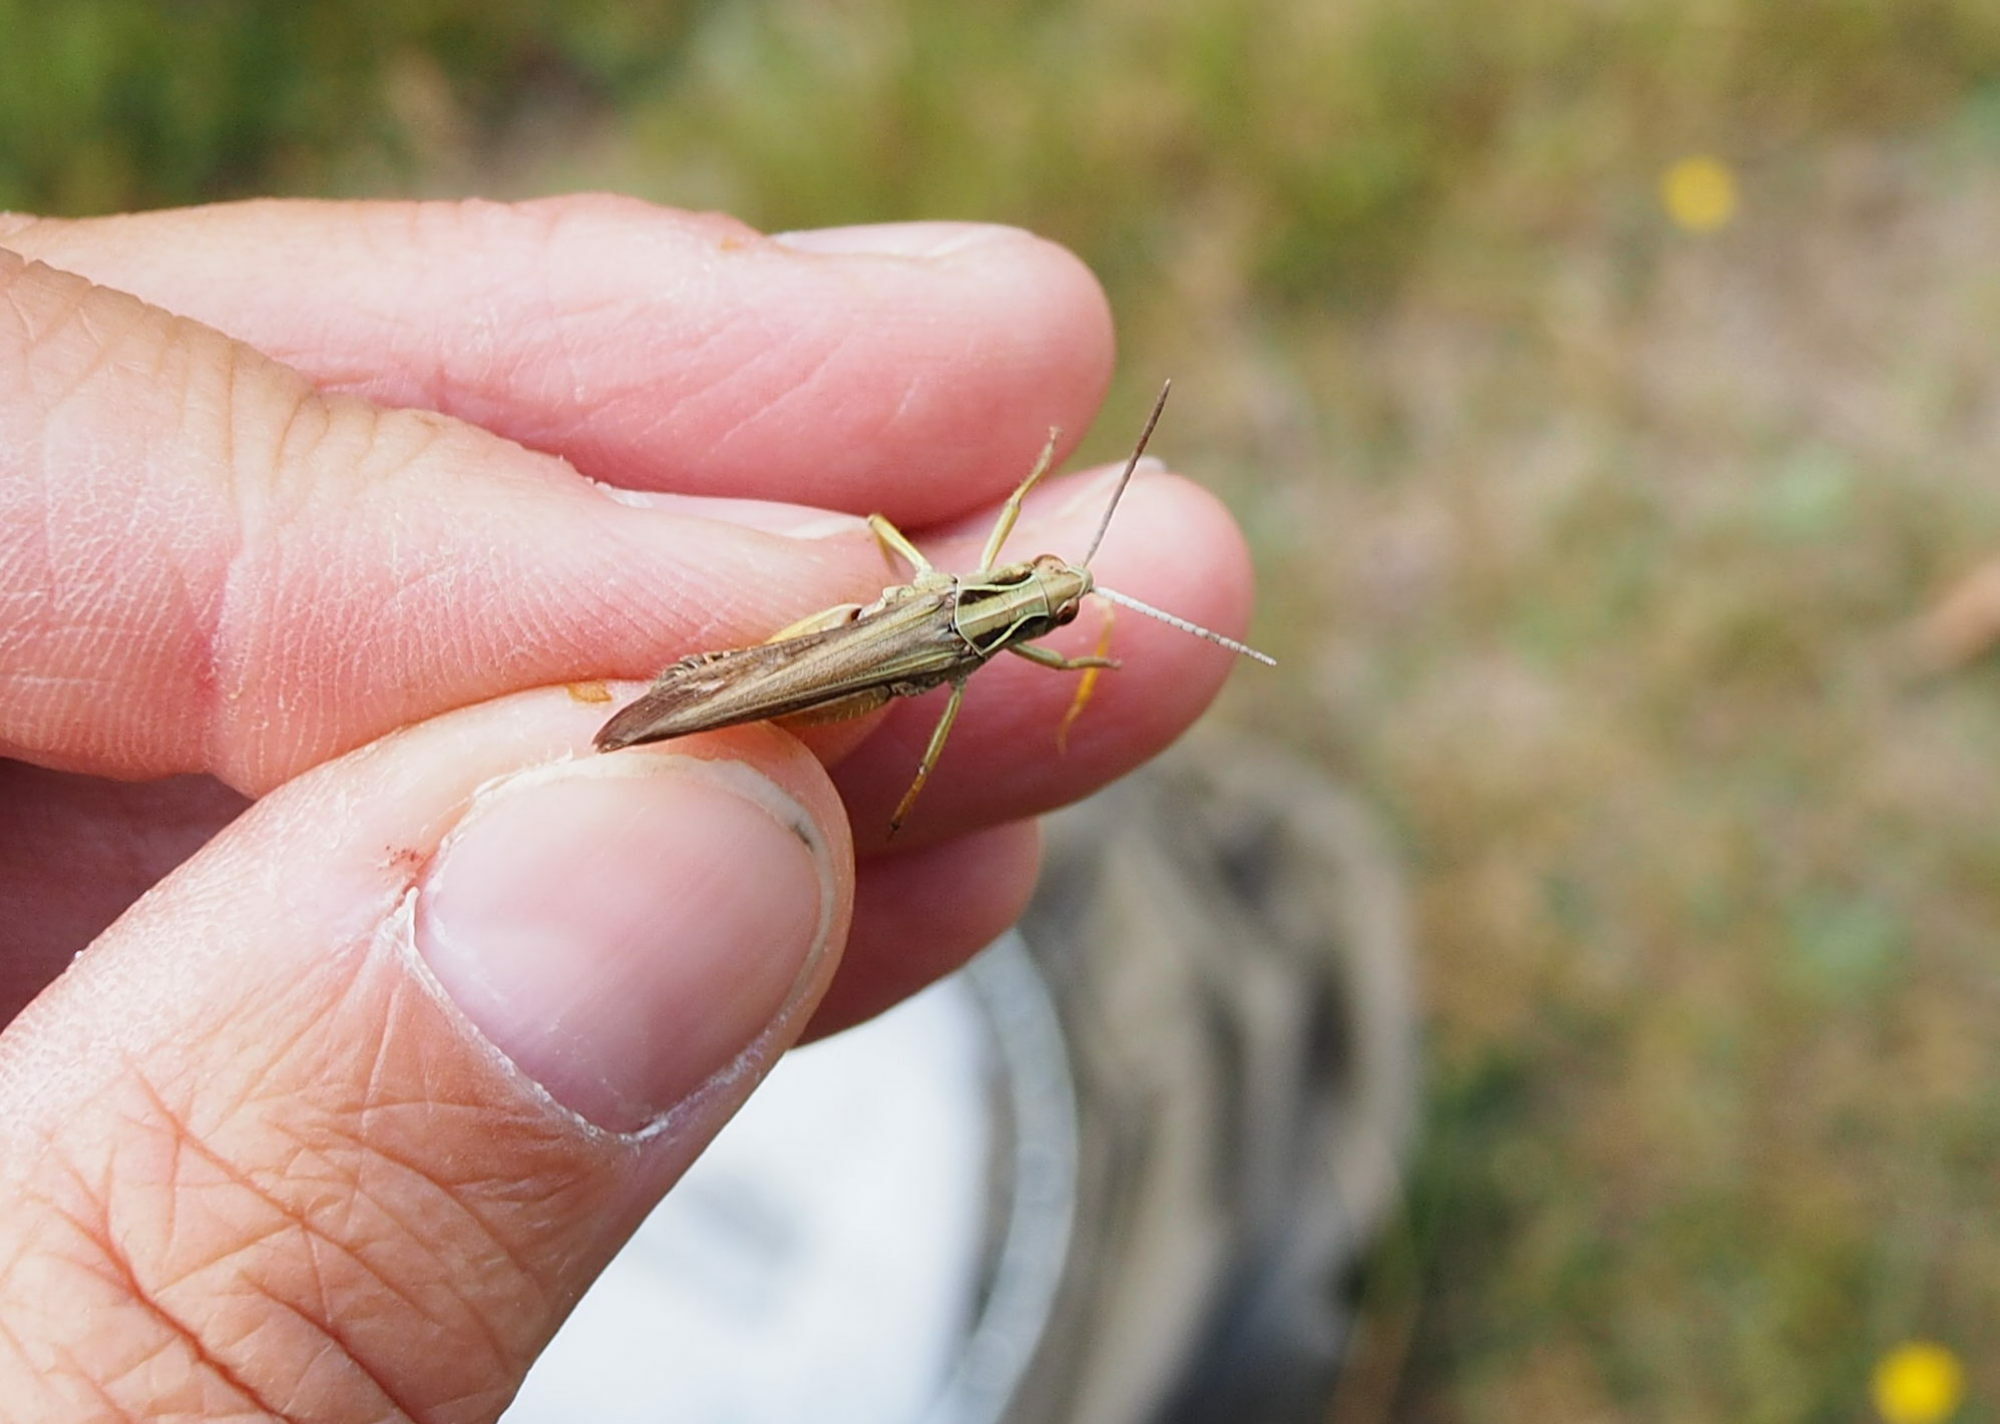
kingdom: Animalia
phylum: Arthropoda
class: Insecta
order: Orthoptera
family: Acrididae
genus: Omocestus
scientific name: Omocestus viridulus
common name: Common green grasshopper
